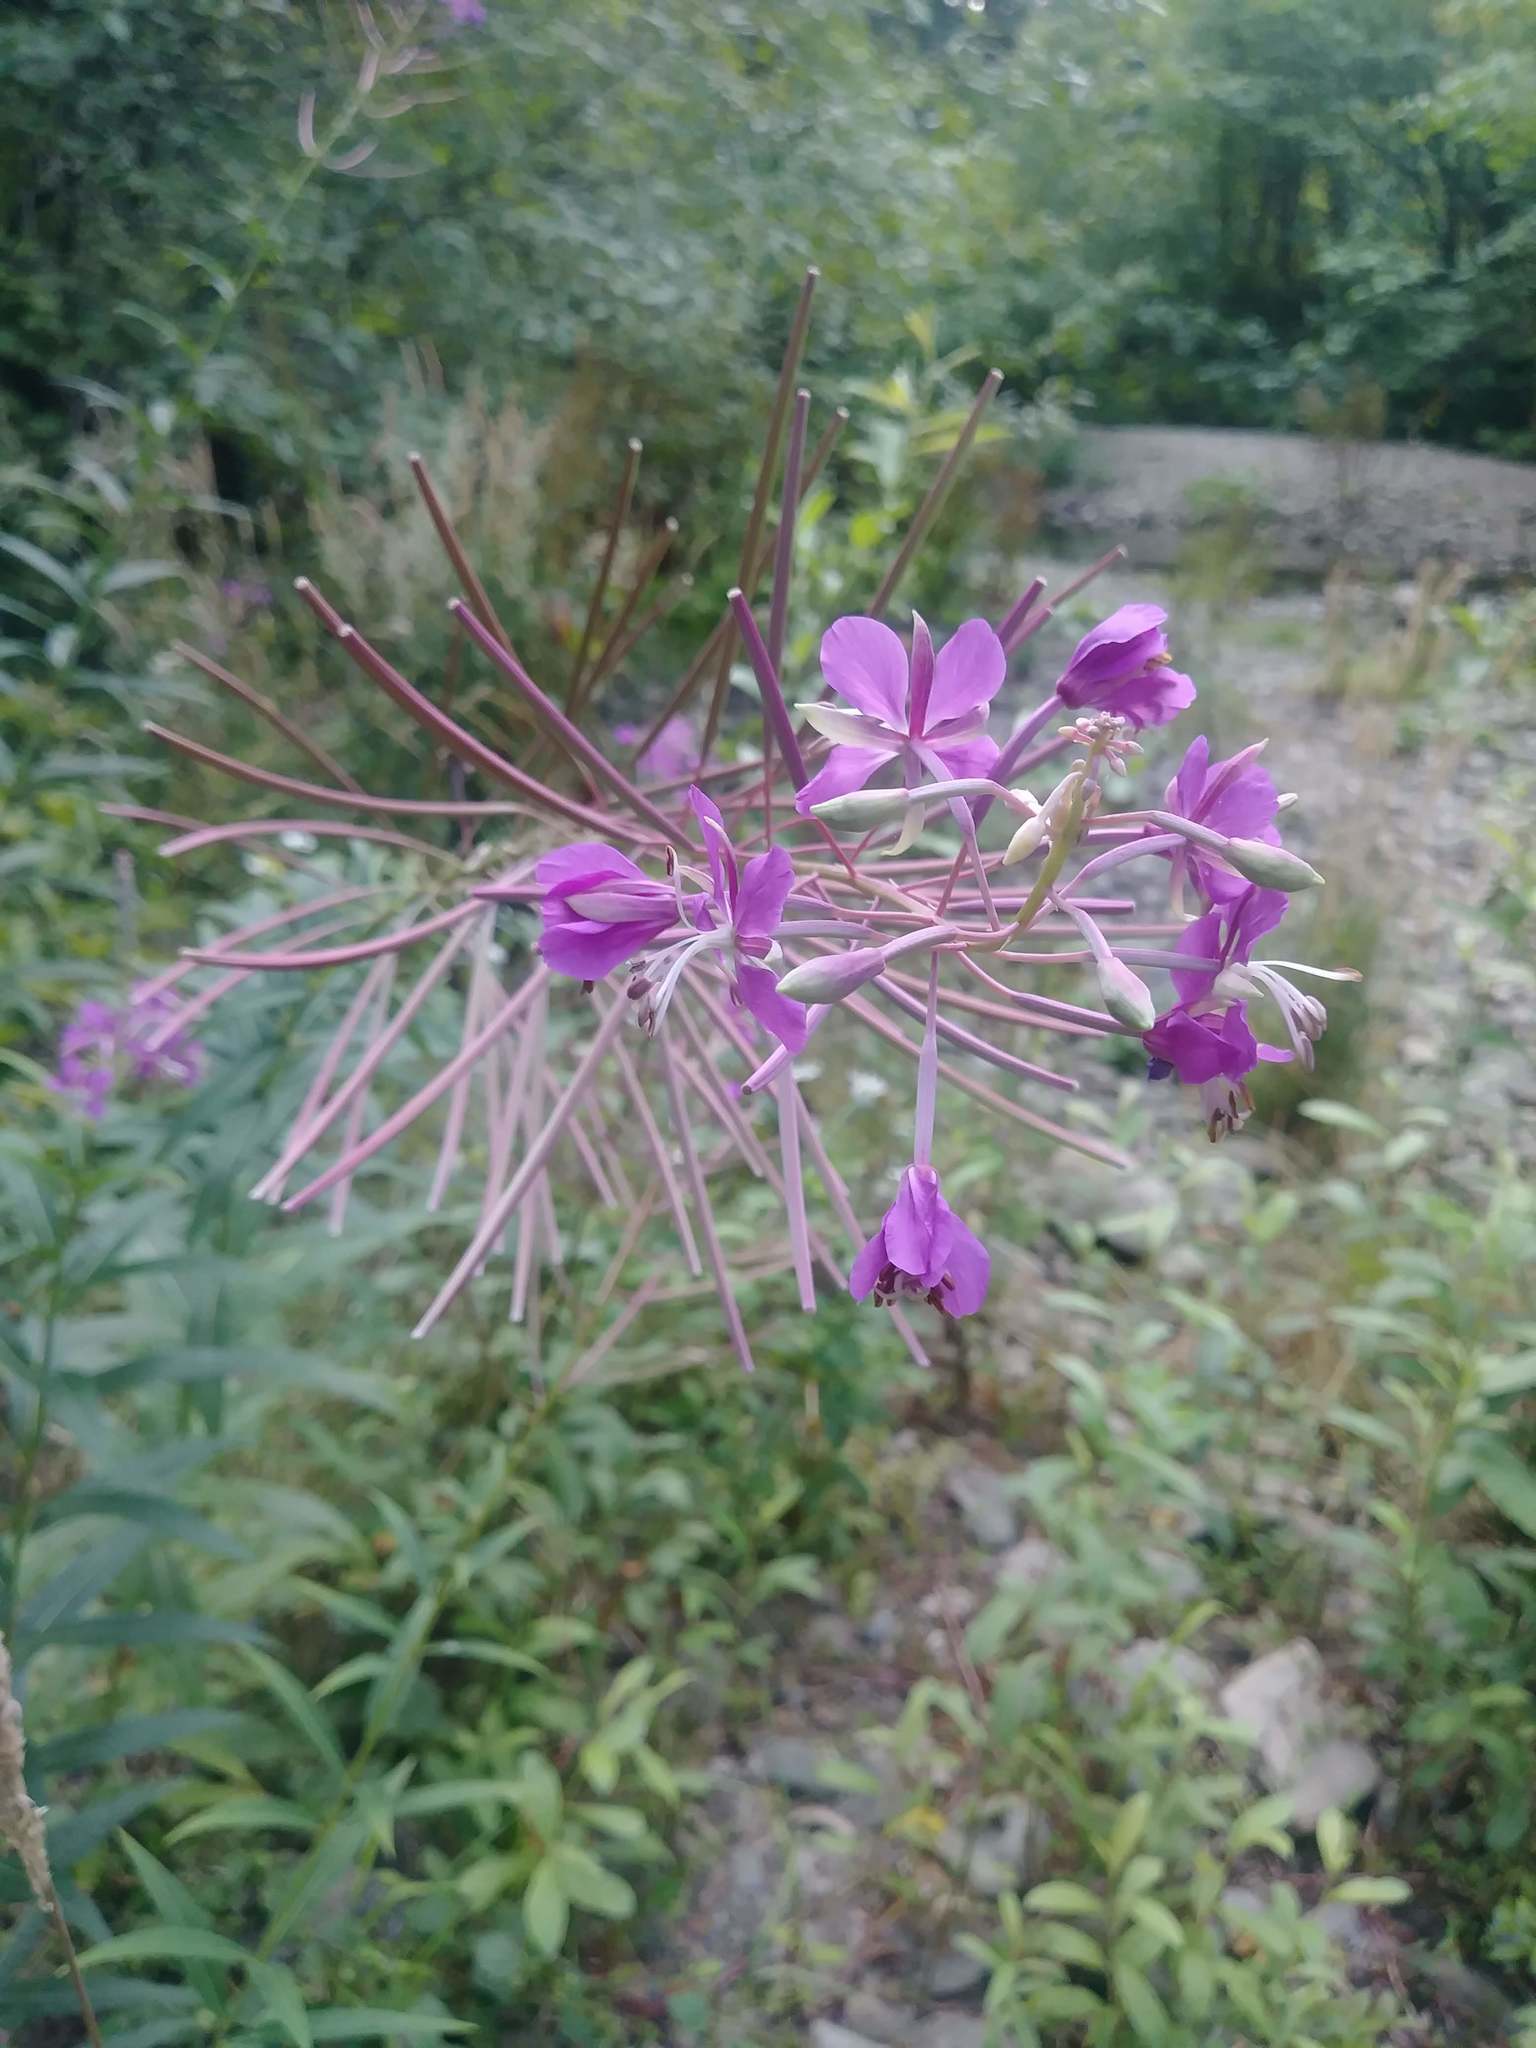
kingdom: Plantae
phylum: Tracheophyta
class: Magnoliopsida
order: Myrtales
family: Onagraceae
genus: Chamaenerion
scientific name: Chamaenerion angustifolium
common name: Fireweed
